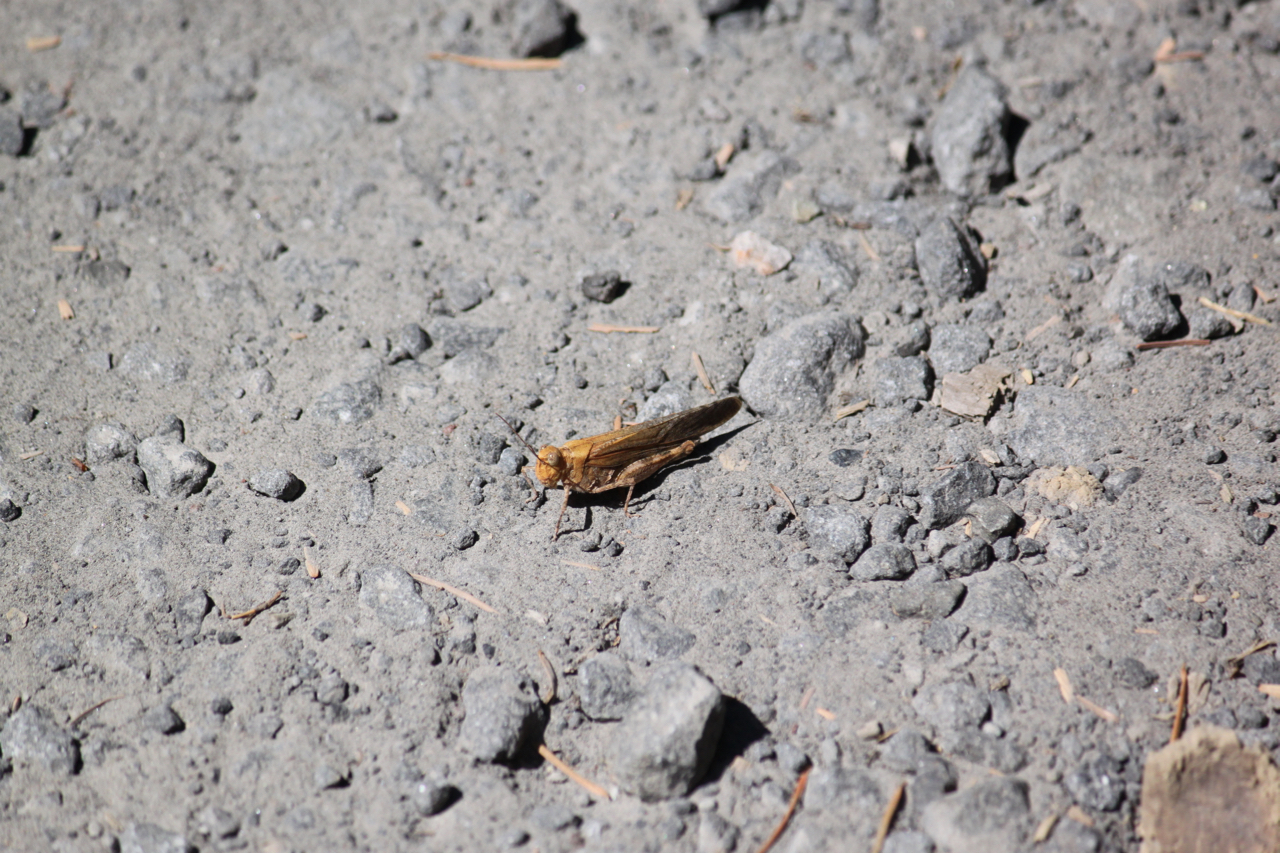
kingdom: Animalia
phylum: Arthropoda
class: Insecta
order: Orthoptera
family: Acrididae
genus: Trimerotropis
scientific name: Trimerotropis verruculata
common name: Crackling forest grasshopper
